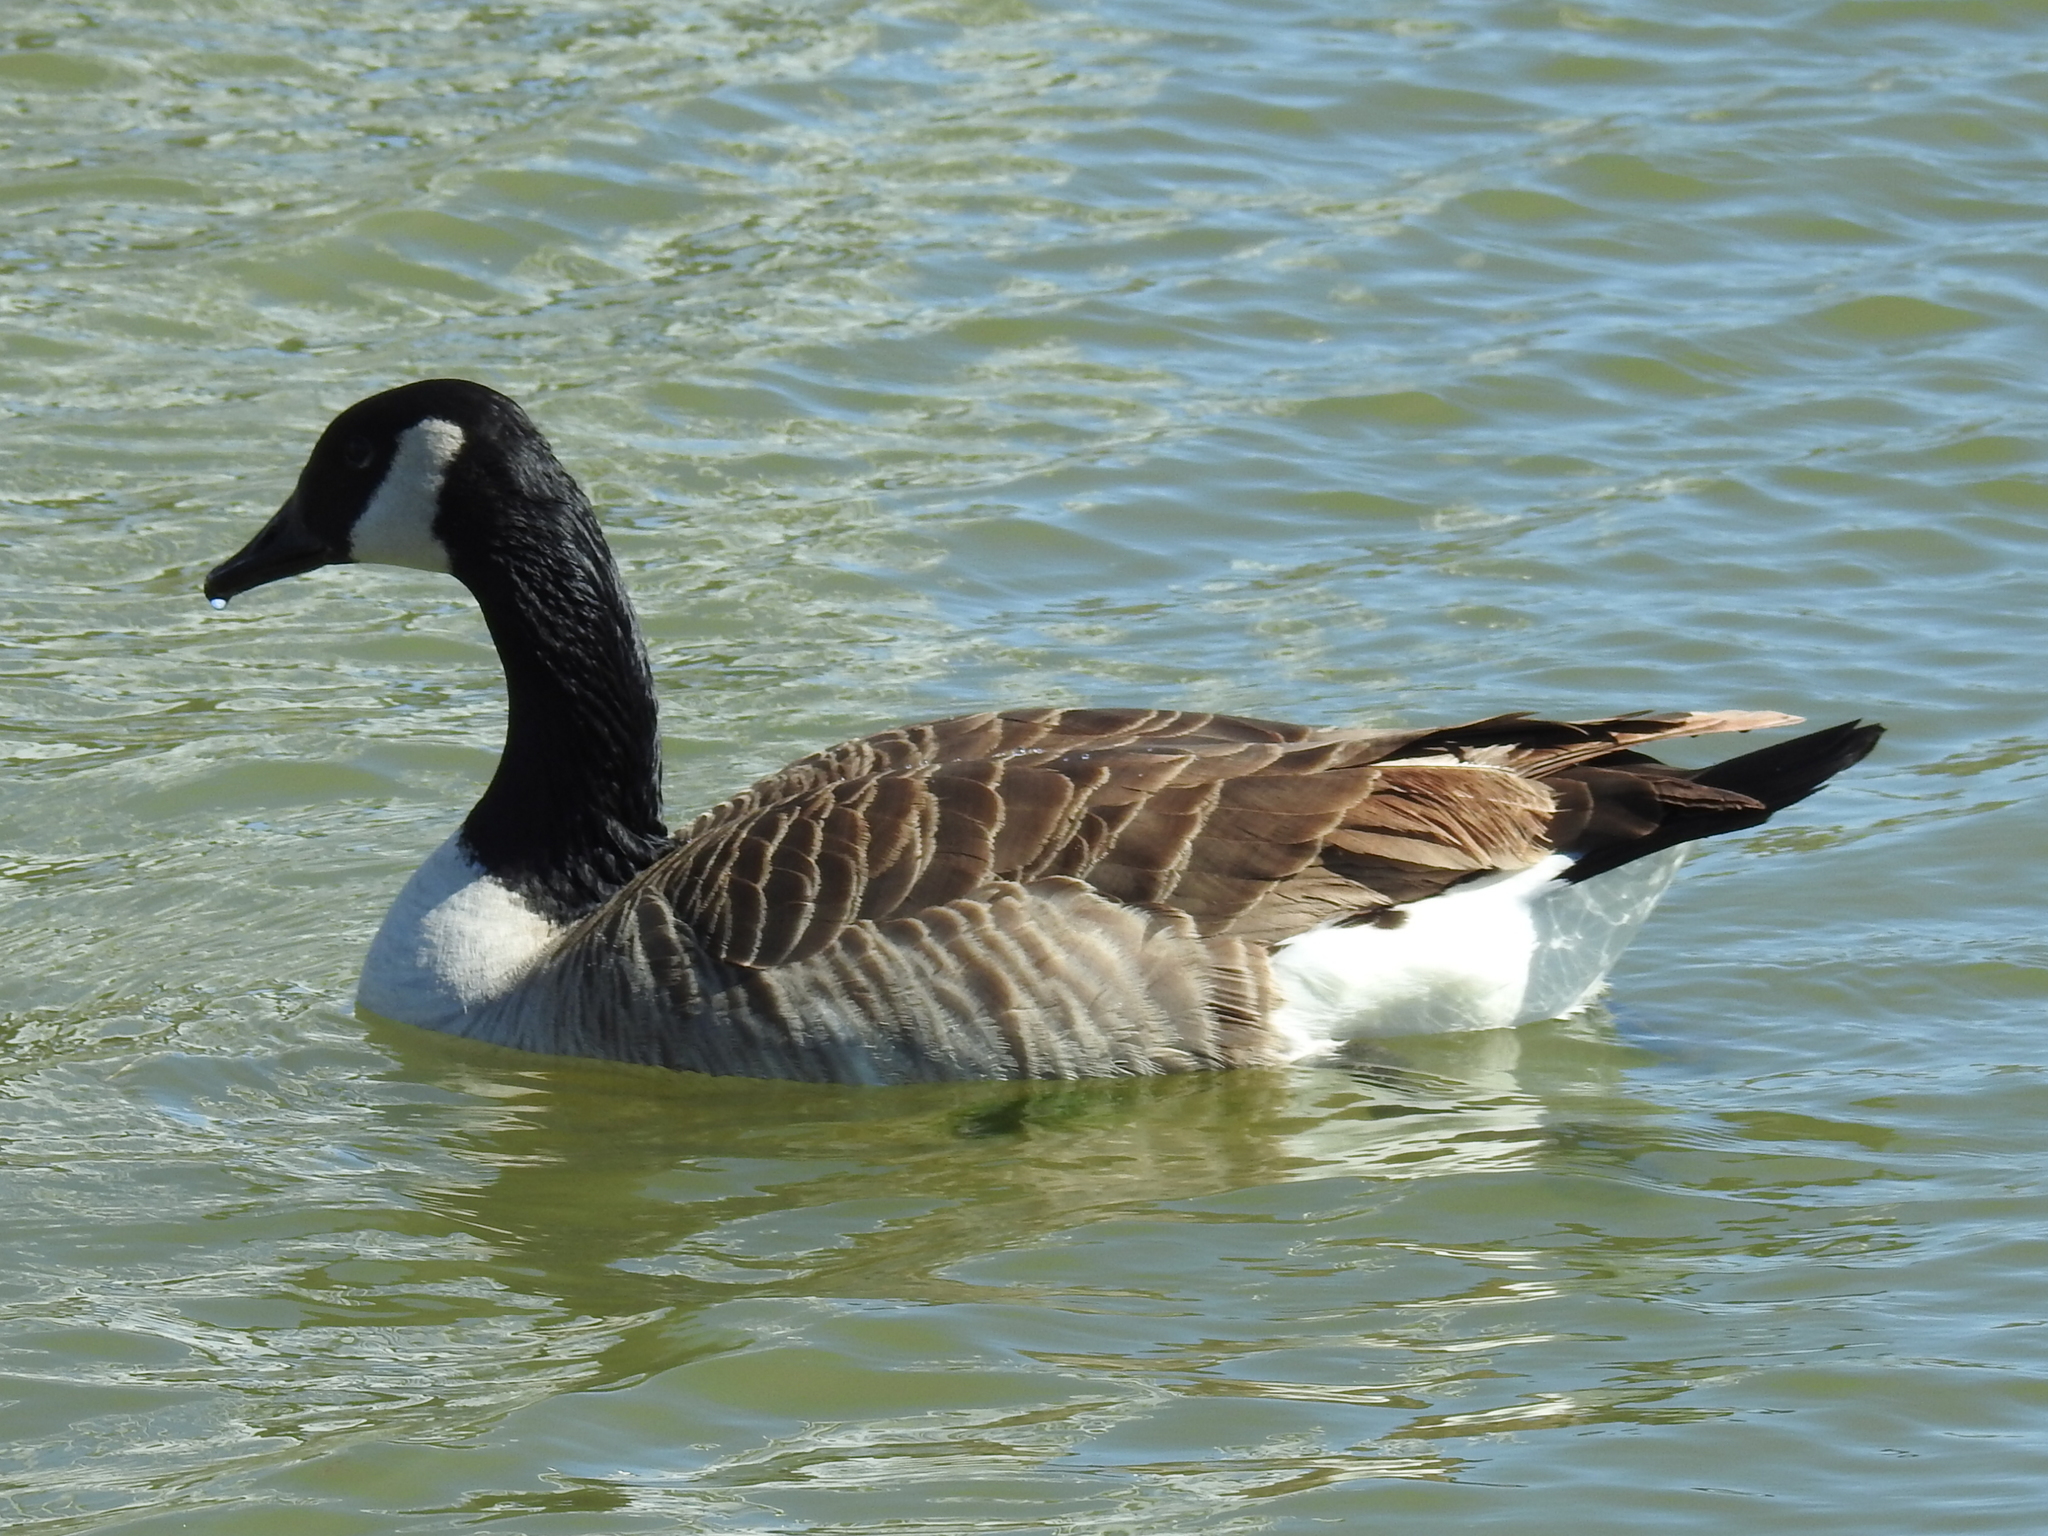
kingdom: Animalia
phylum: Chordata
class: Aves
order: Anseriformes
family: Anatidae
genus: Branta
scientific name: Branta canadensis
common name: Canada goose
